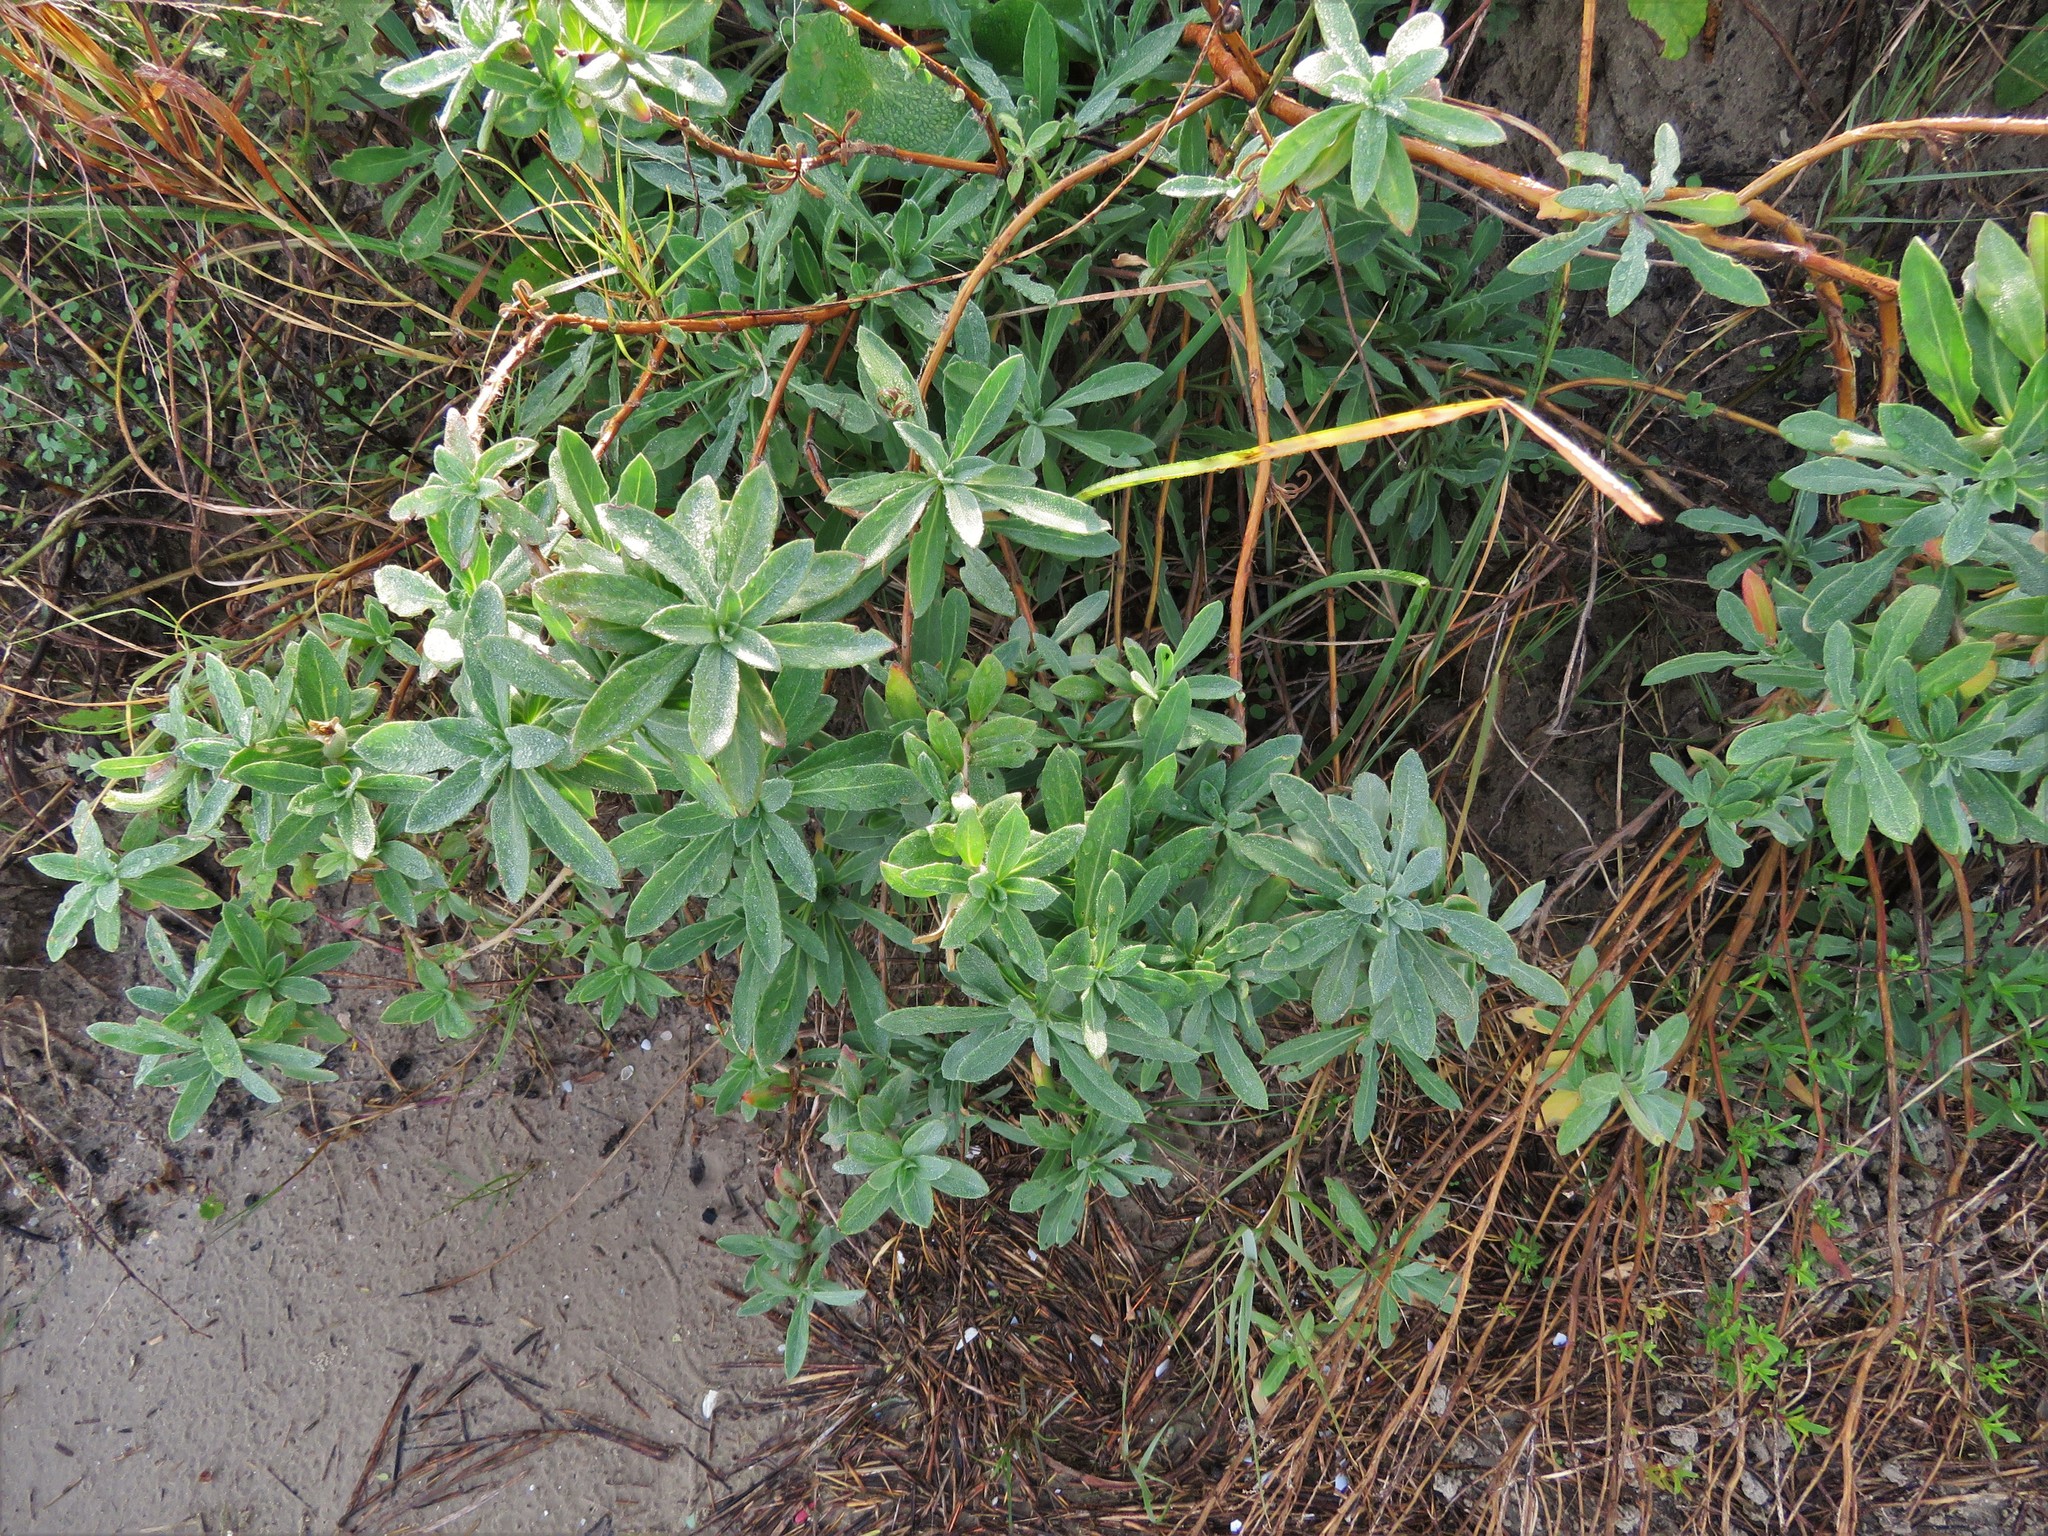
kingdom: Plantae
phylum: Tracheophyta
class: Magnoliopsida
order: Myrtales
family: Onagraceae
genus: Oenothera
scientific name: Oenothera drummondii
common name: Beach evening-primrose
